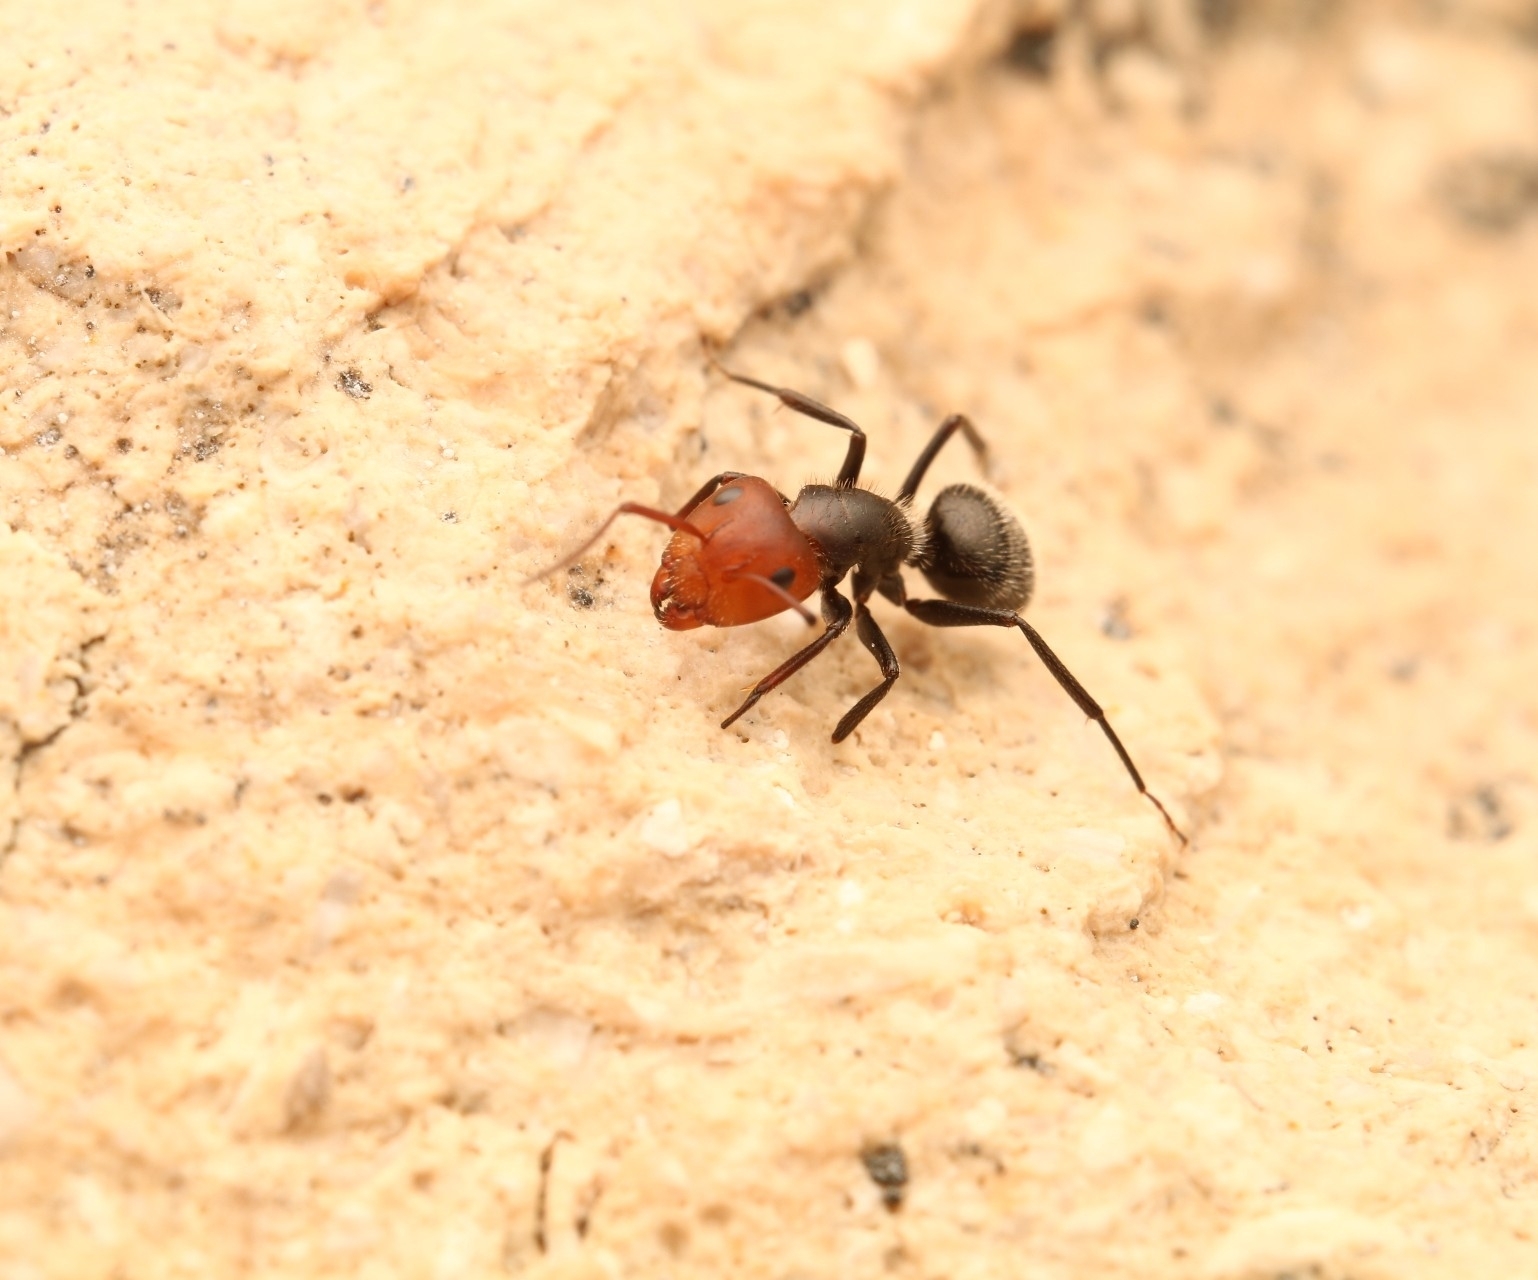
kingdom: Animalia
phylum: Arthropoda
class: Insecta
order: Hymenoptera
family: Formicidae
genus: Camponotus
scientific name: Camponotus lindigi
